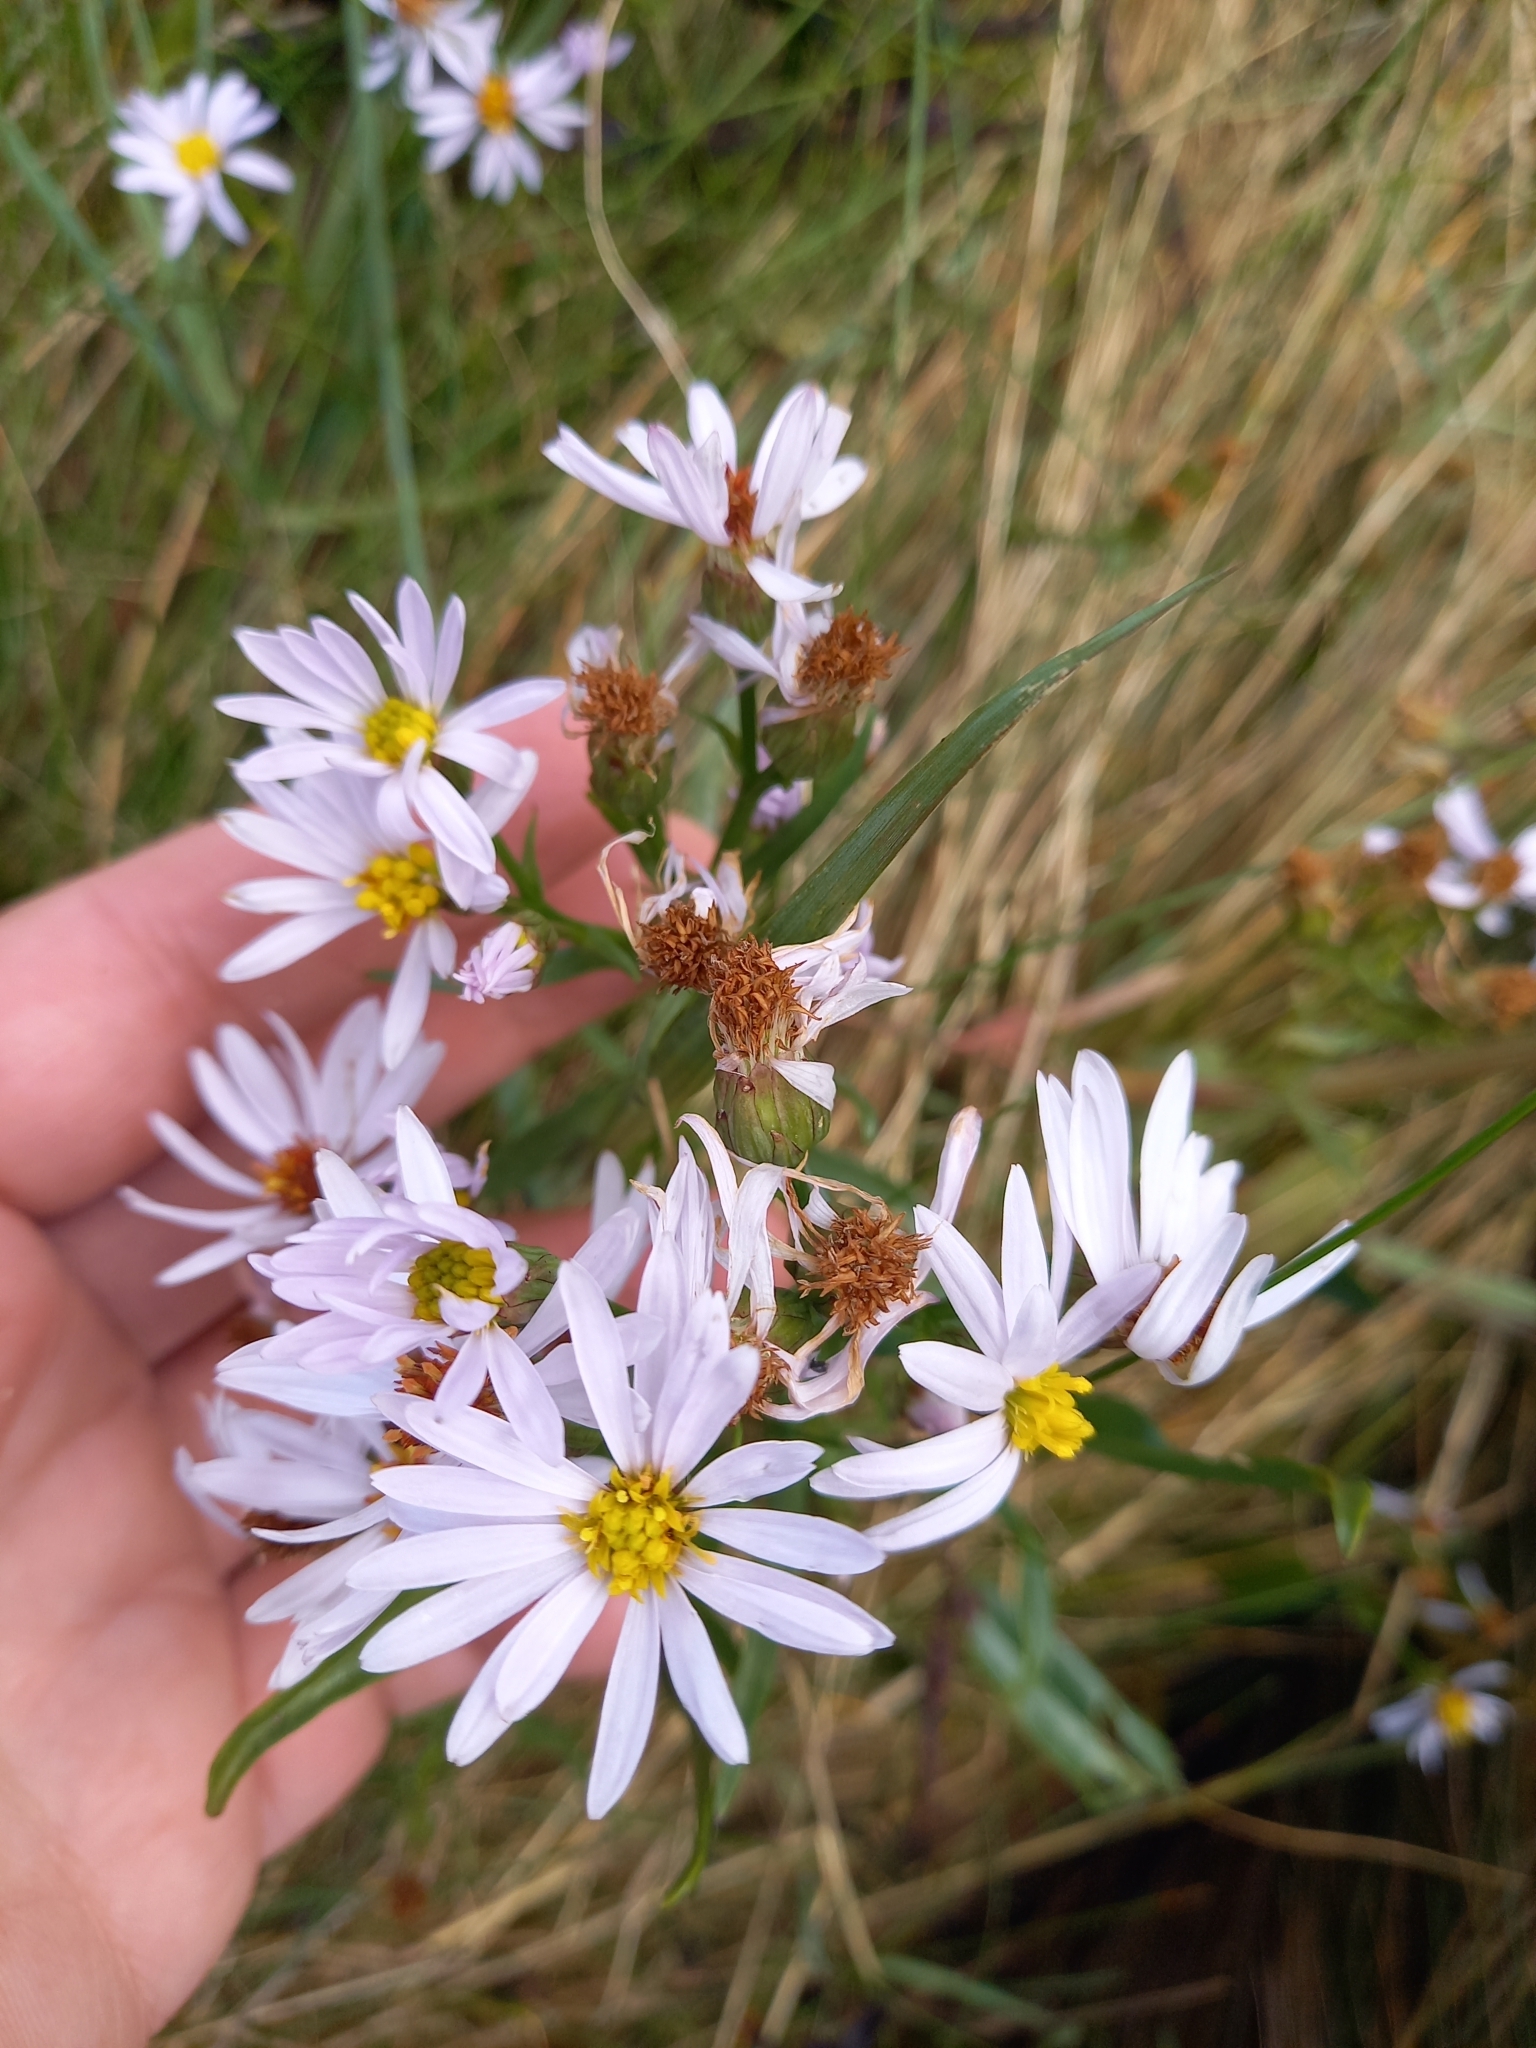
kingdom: Plantae
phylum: Tracheophyta
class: Magnoliopsida
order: Asterales
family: Asteraceae
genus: Tripolium
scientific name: Tripolium pannonicum
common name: Sea aster
